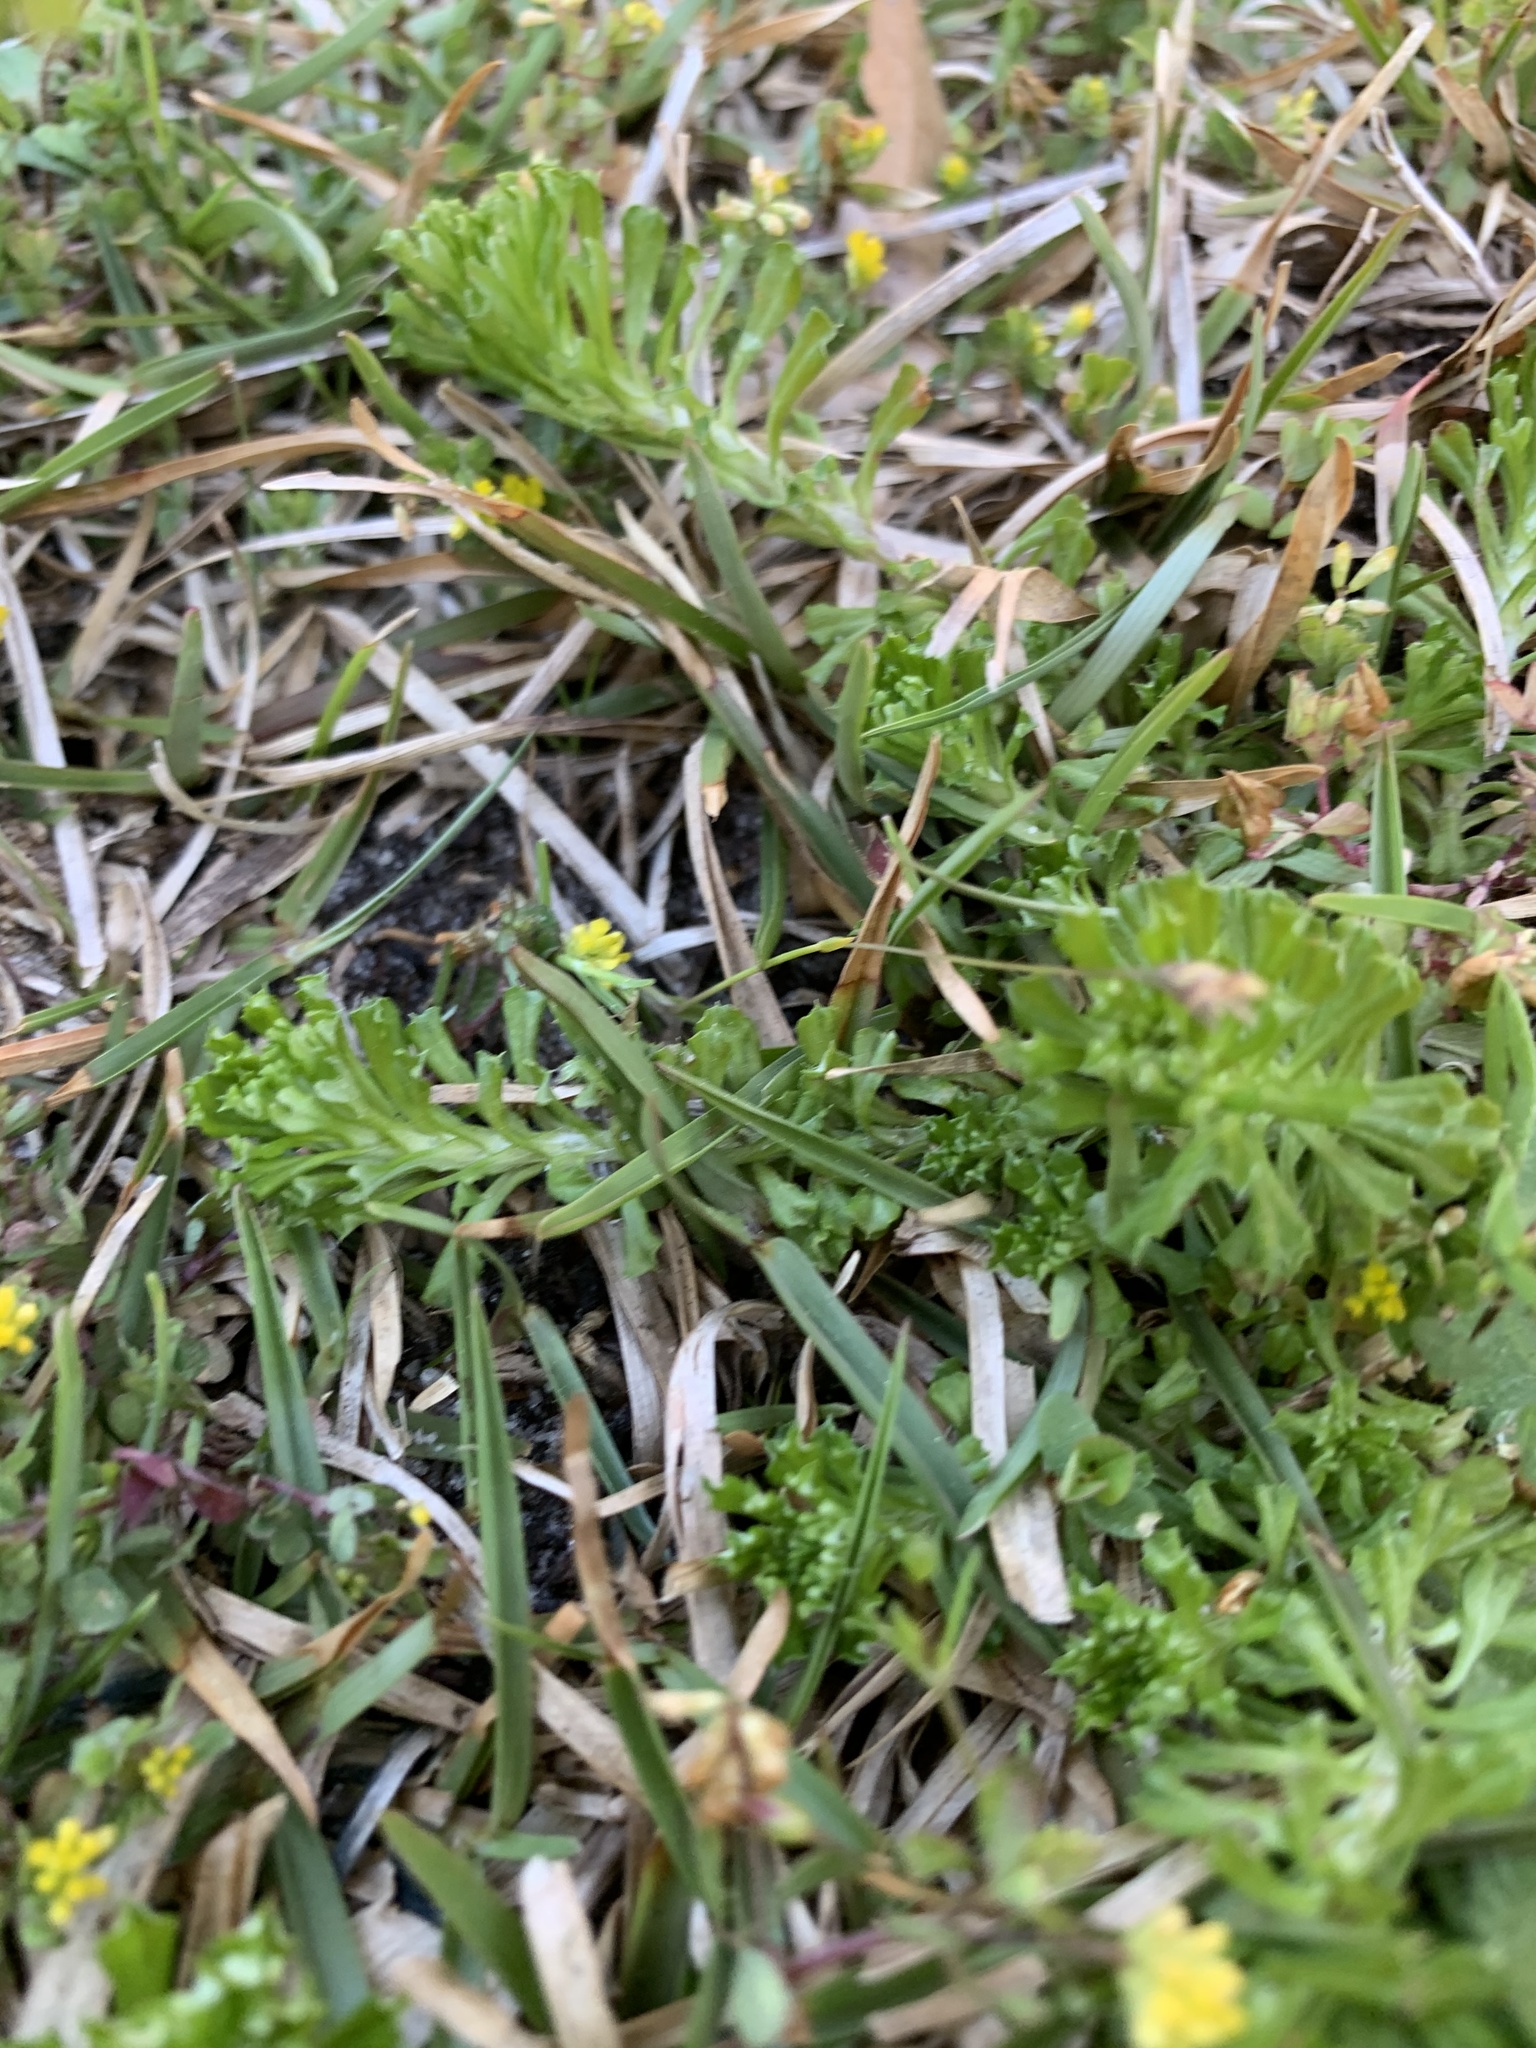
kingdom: Plantae
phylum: Tracheophyta
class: Magnoliopsida
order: Asterales
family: Asteraceae
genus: Facelis
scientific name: Facelis retusa
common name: Annual trampweed
